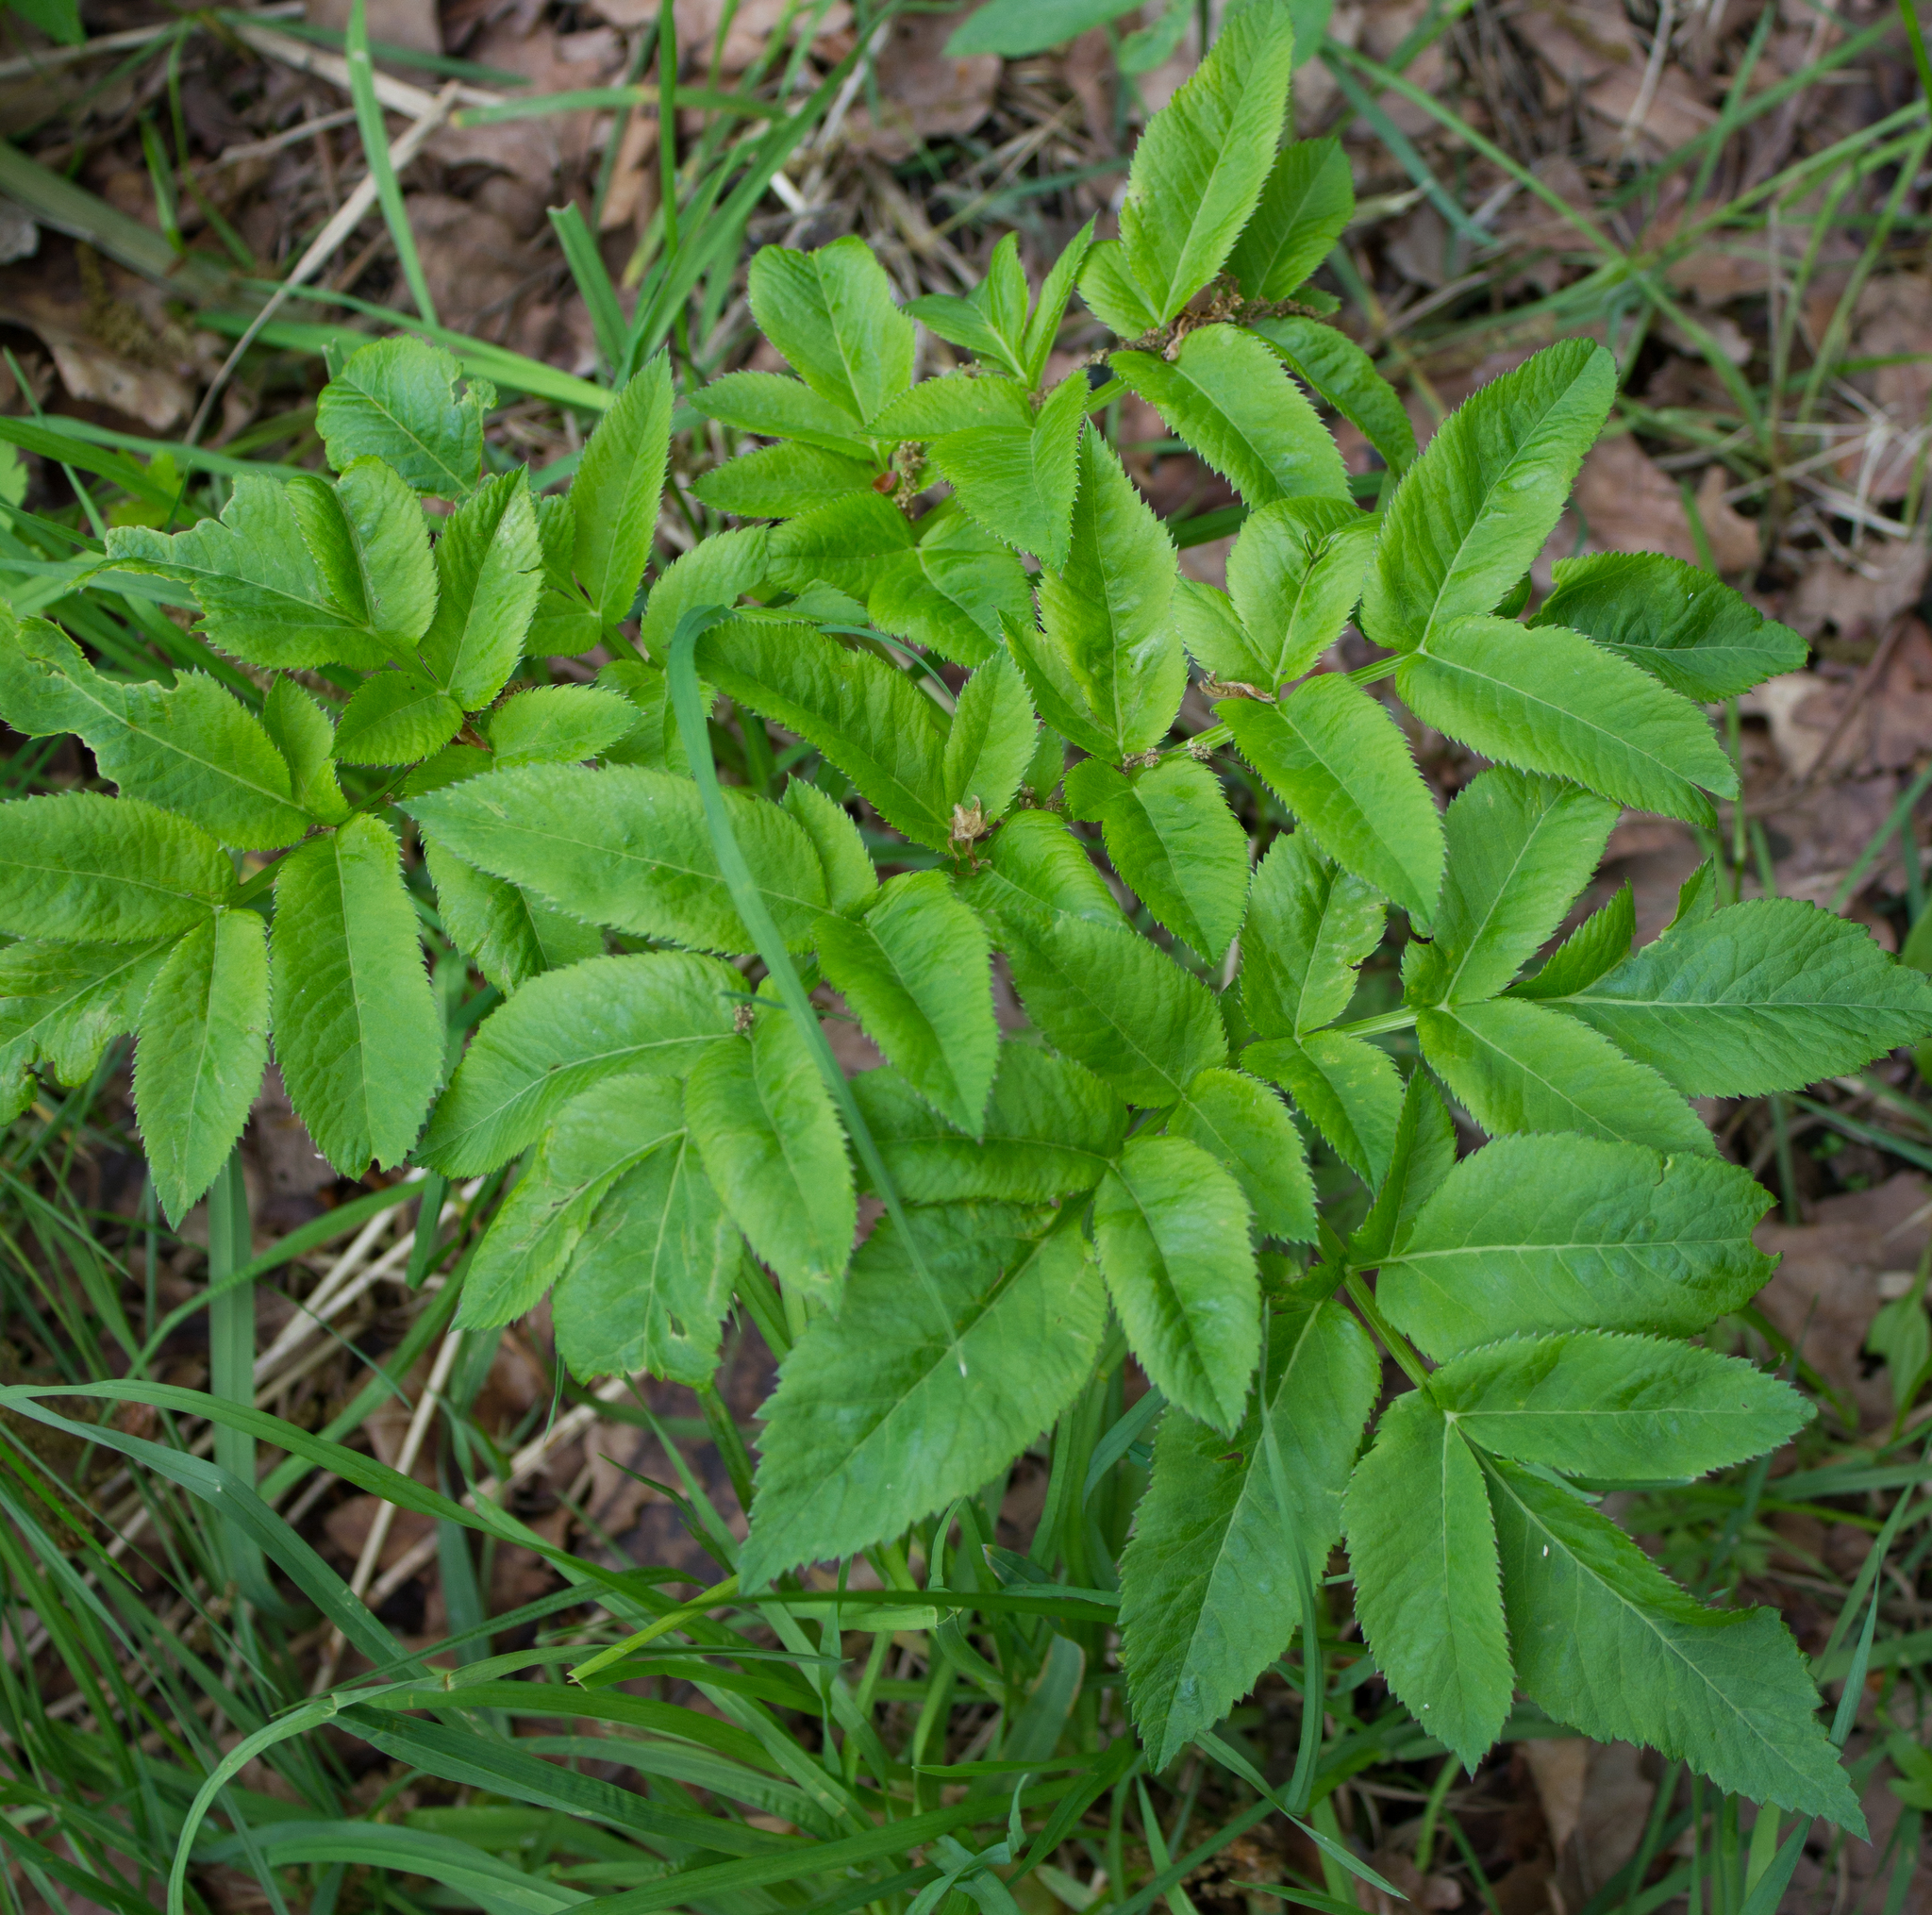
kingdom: Plantae
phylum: Tracheophyta
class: Magnoliopsida
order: Apiales
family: Apiaceae
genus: Angelica
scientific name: Angelica sylvestris
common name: Wild angelica
